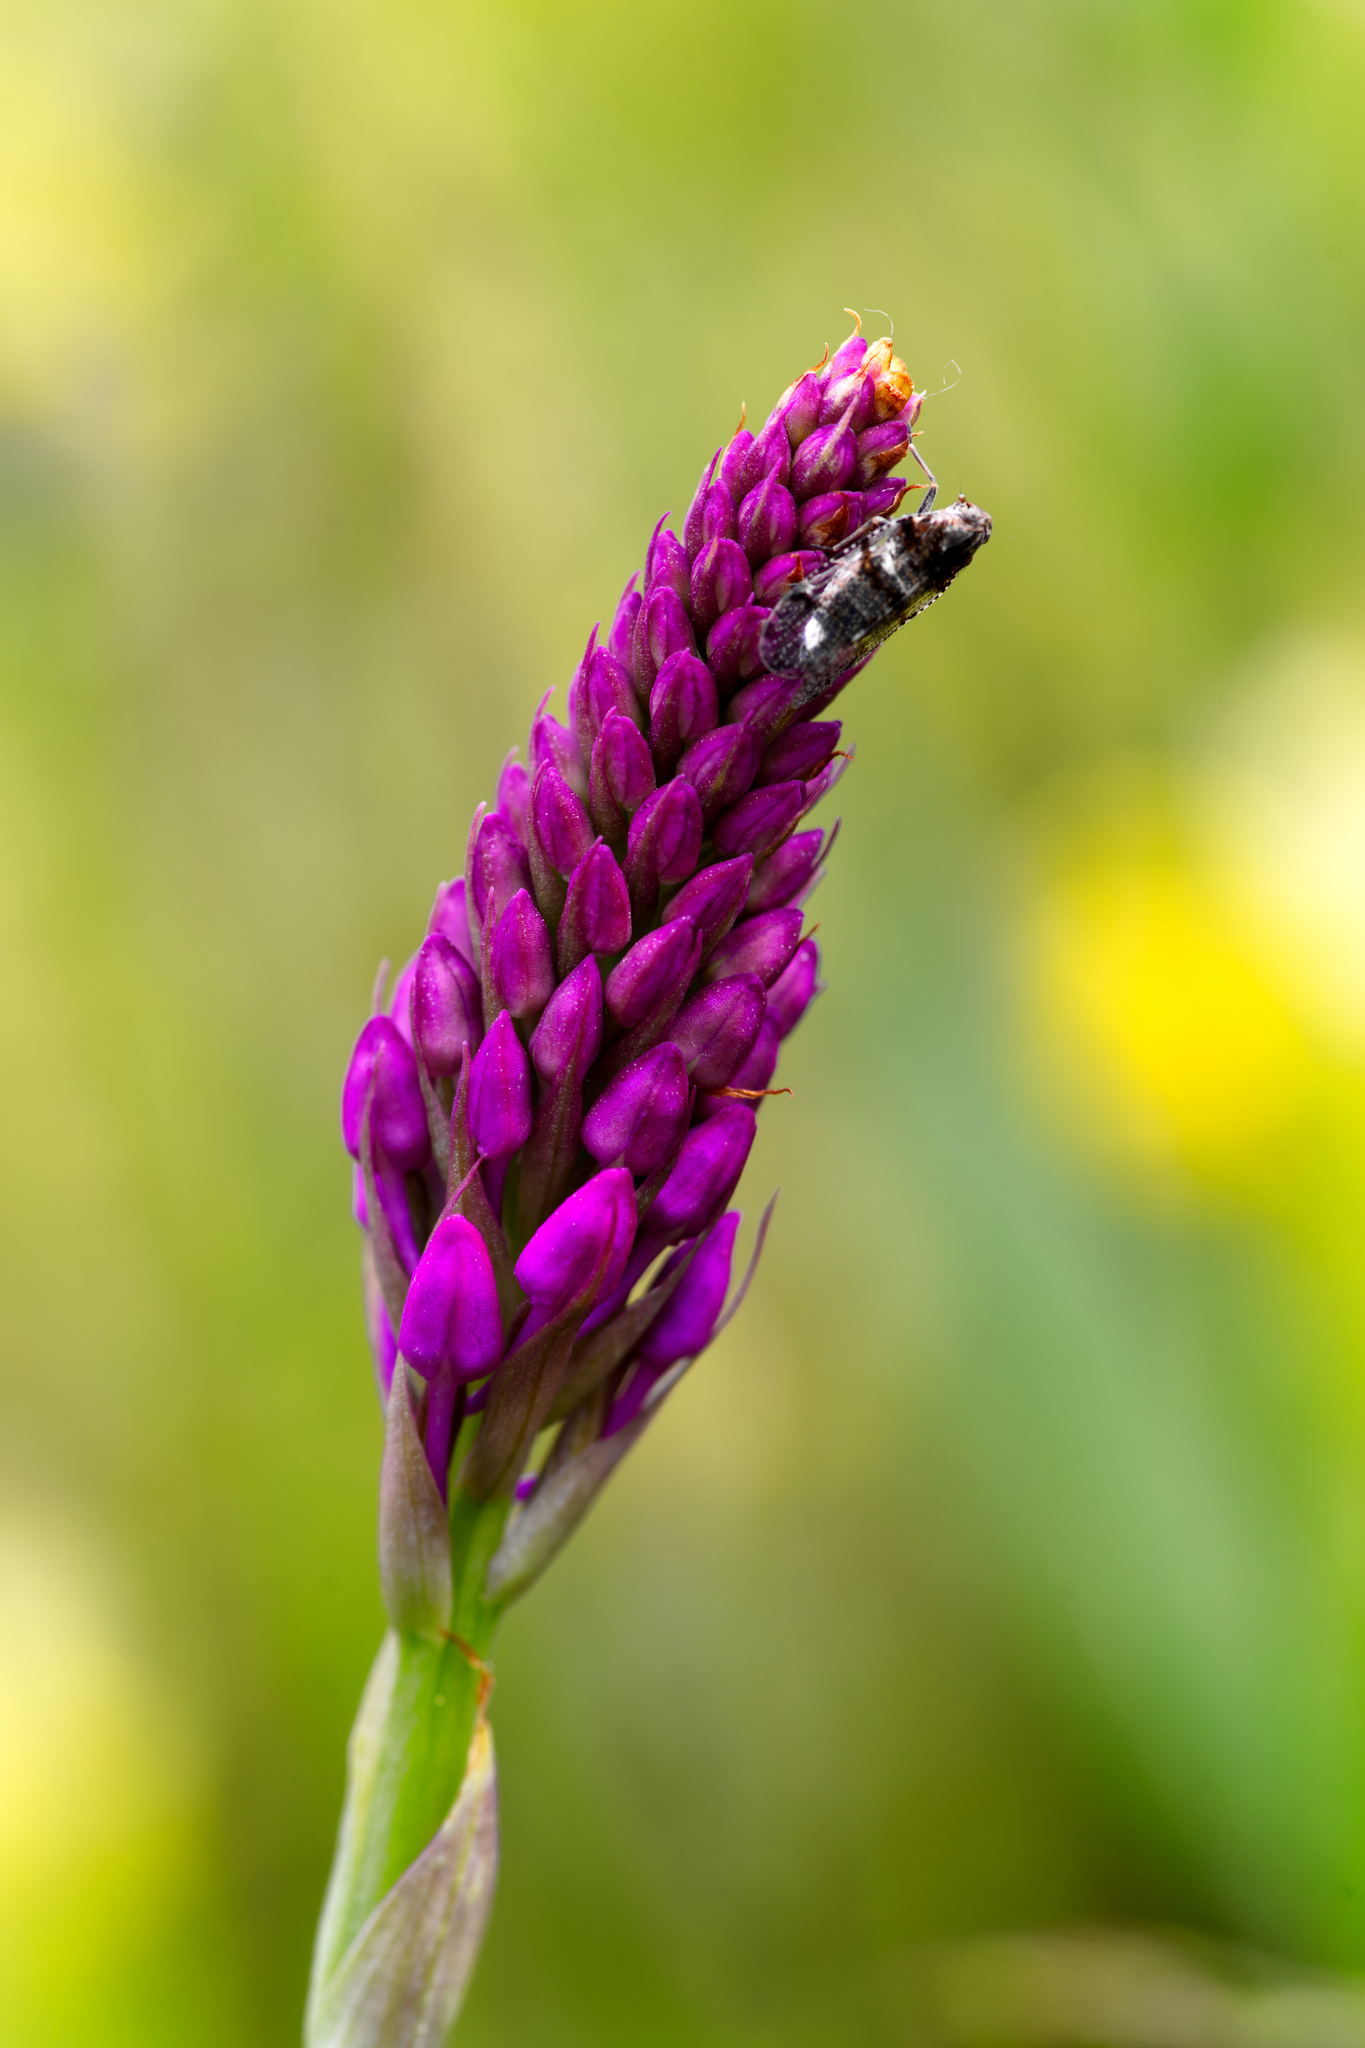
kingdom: Plantae
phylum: Tracheophyta
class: Liliopsida
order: Asparagales
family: Orchidaceae
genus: Anacamptis
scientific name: Anacamptis pyramidalis
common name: Pyramidal orchid
